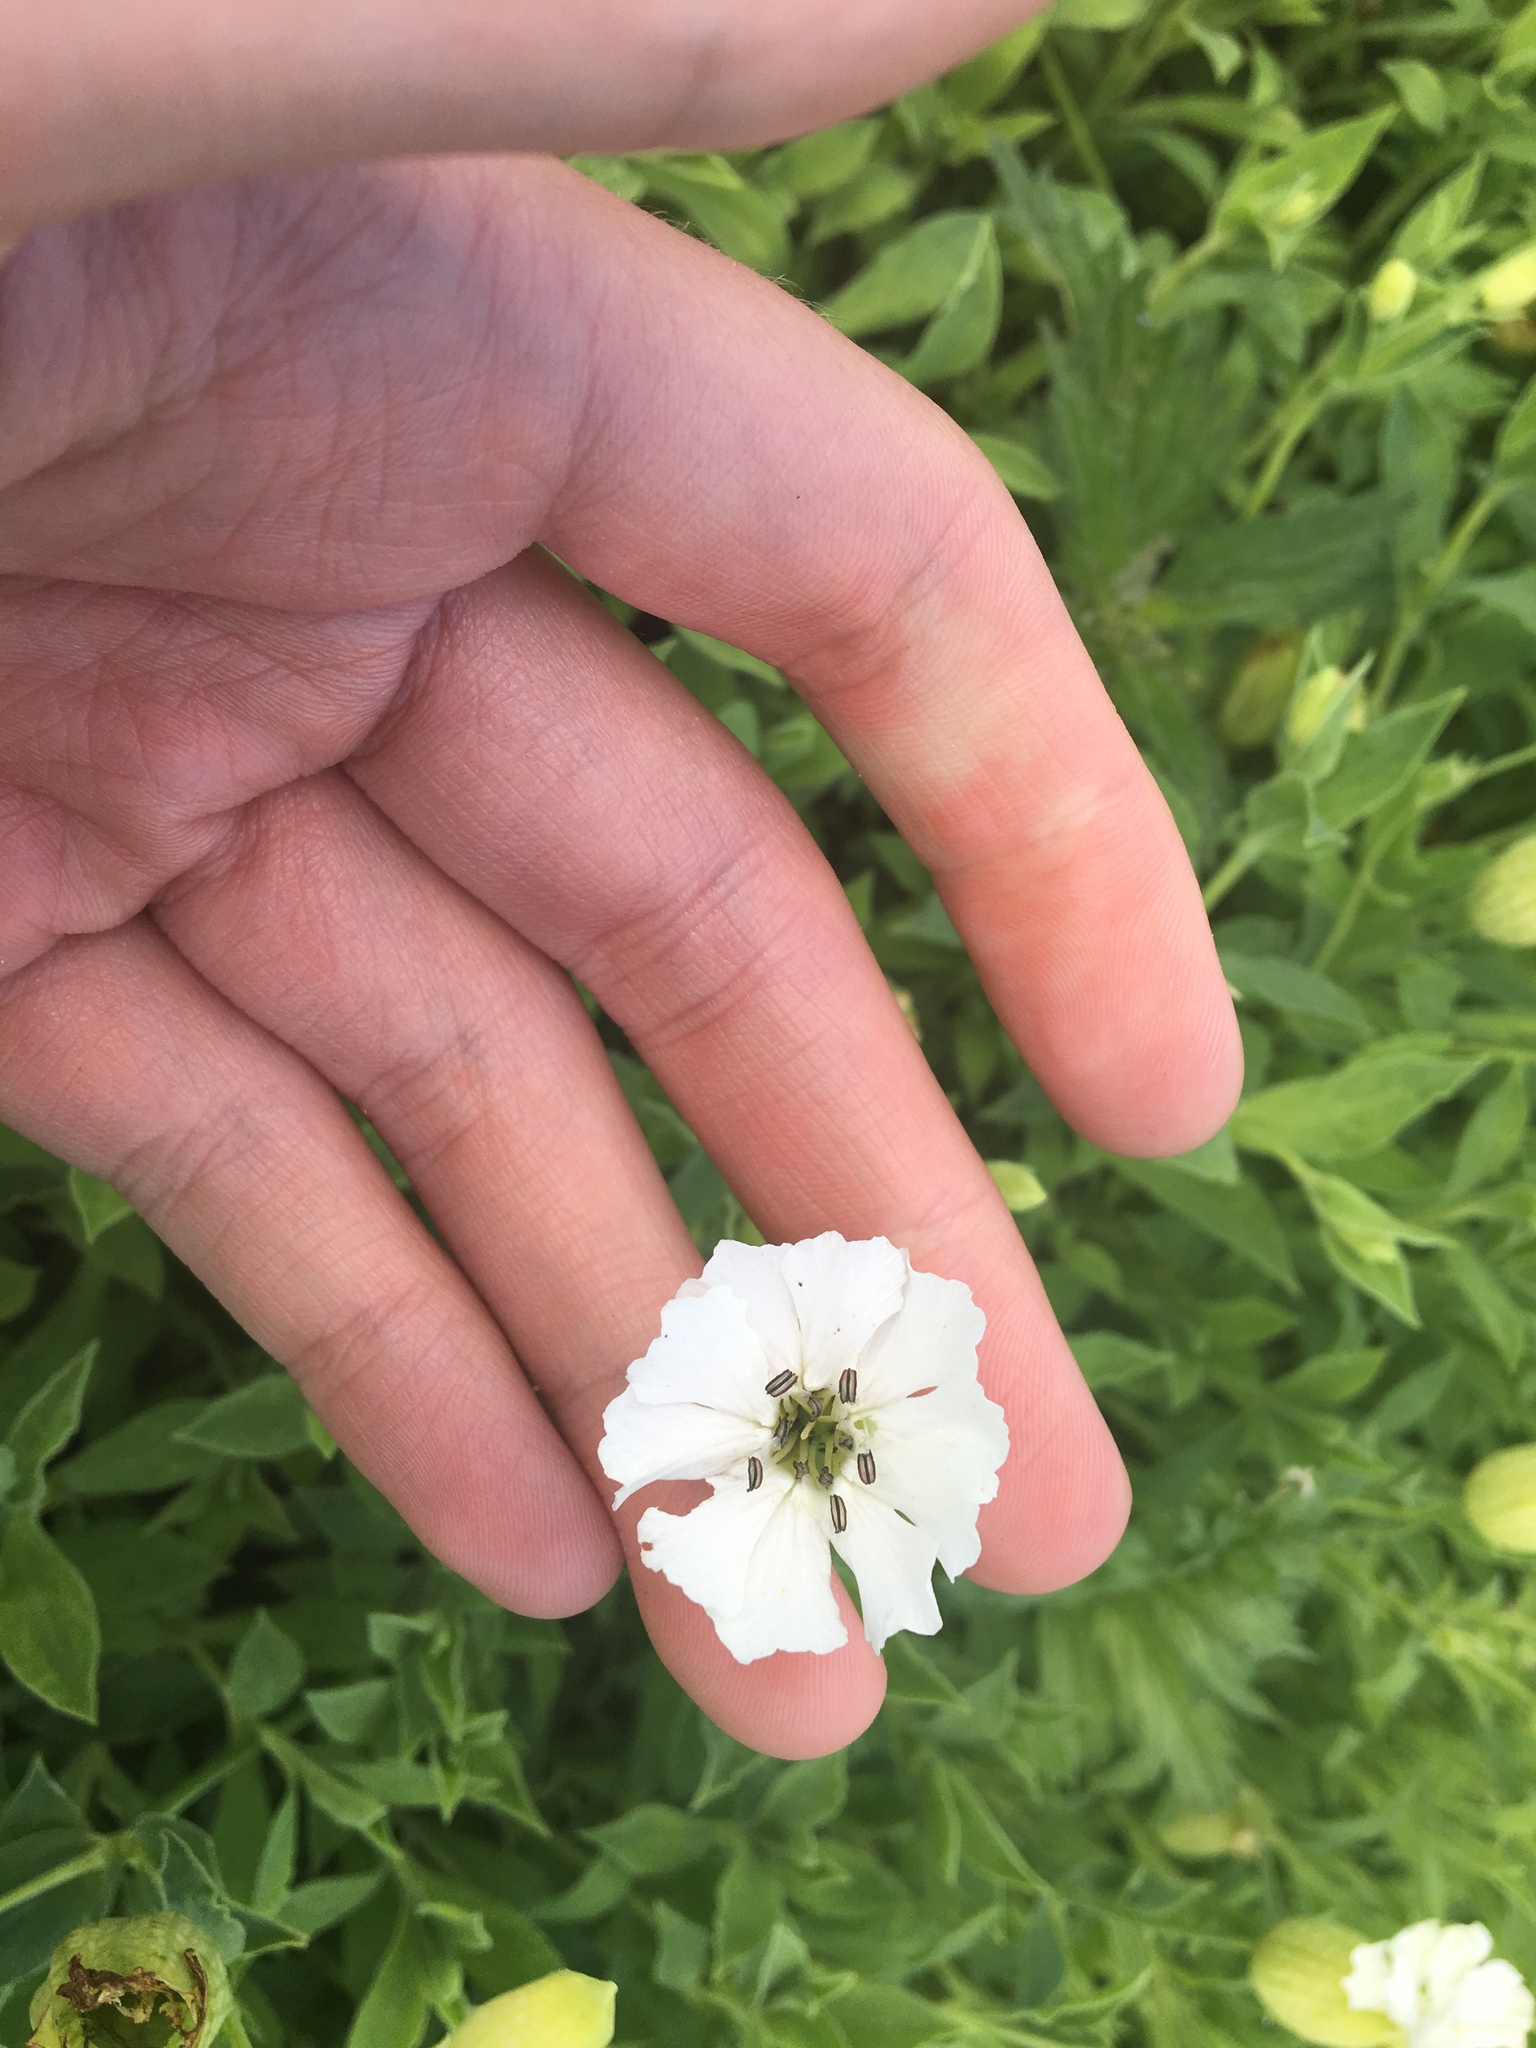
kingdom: Plantae
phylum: Tracheophyta
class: Magnoliopsida
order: Caryophyllales
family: Caryophyllaceae
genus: Silene
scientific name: Silene uniflora
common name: Sea campion
